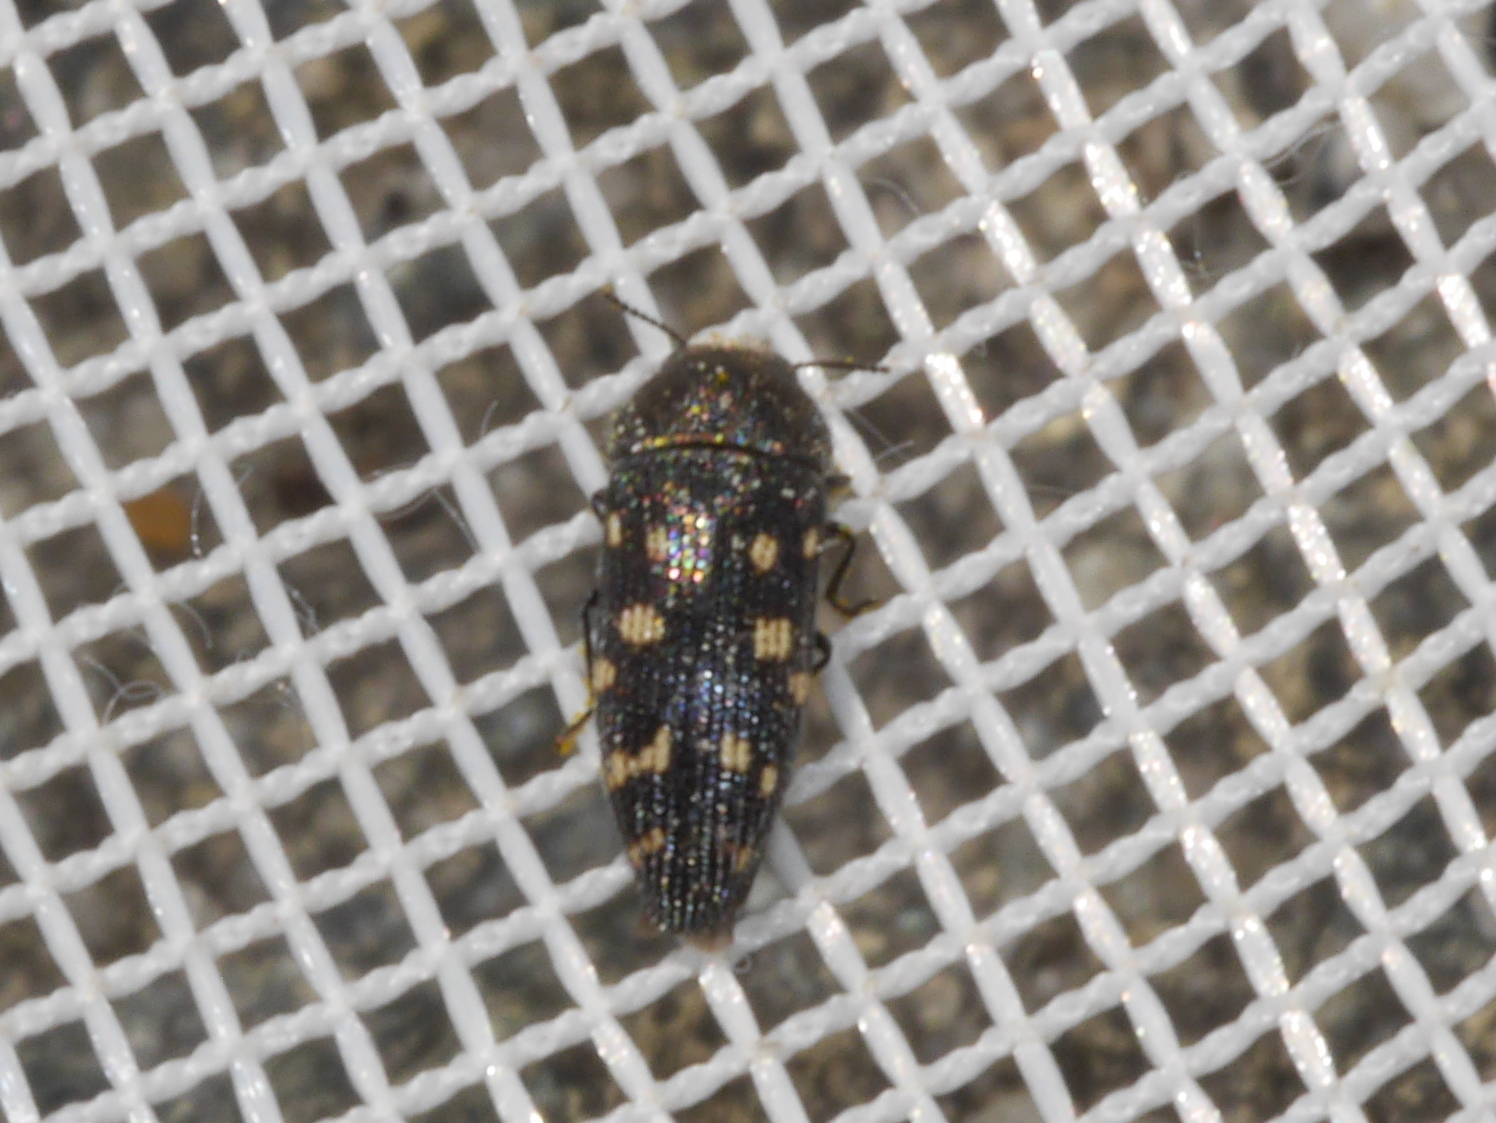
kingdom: Animalia
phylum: Arthropoda
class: Insecta
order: Coleoptera
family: Buprestidae
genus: Acmaeodera
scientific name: Acmaeodera tubulus
